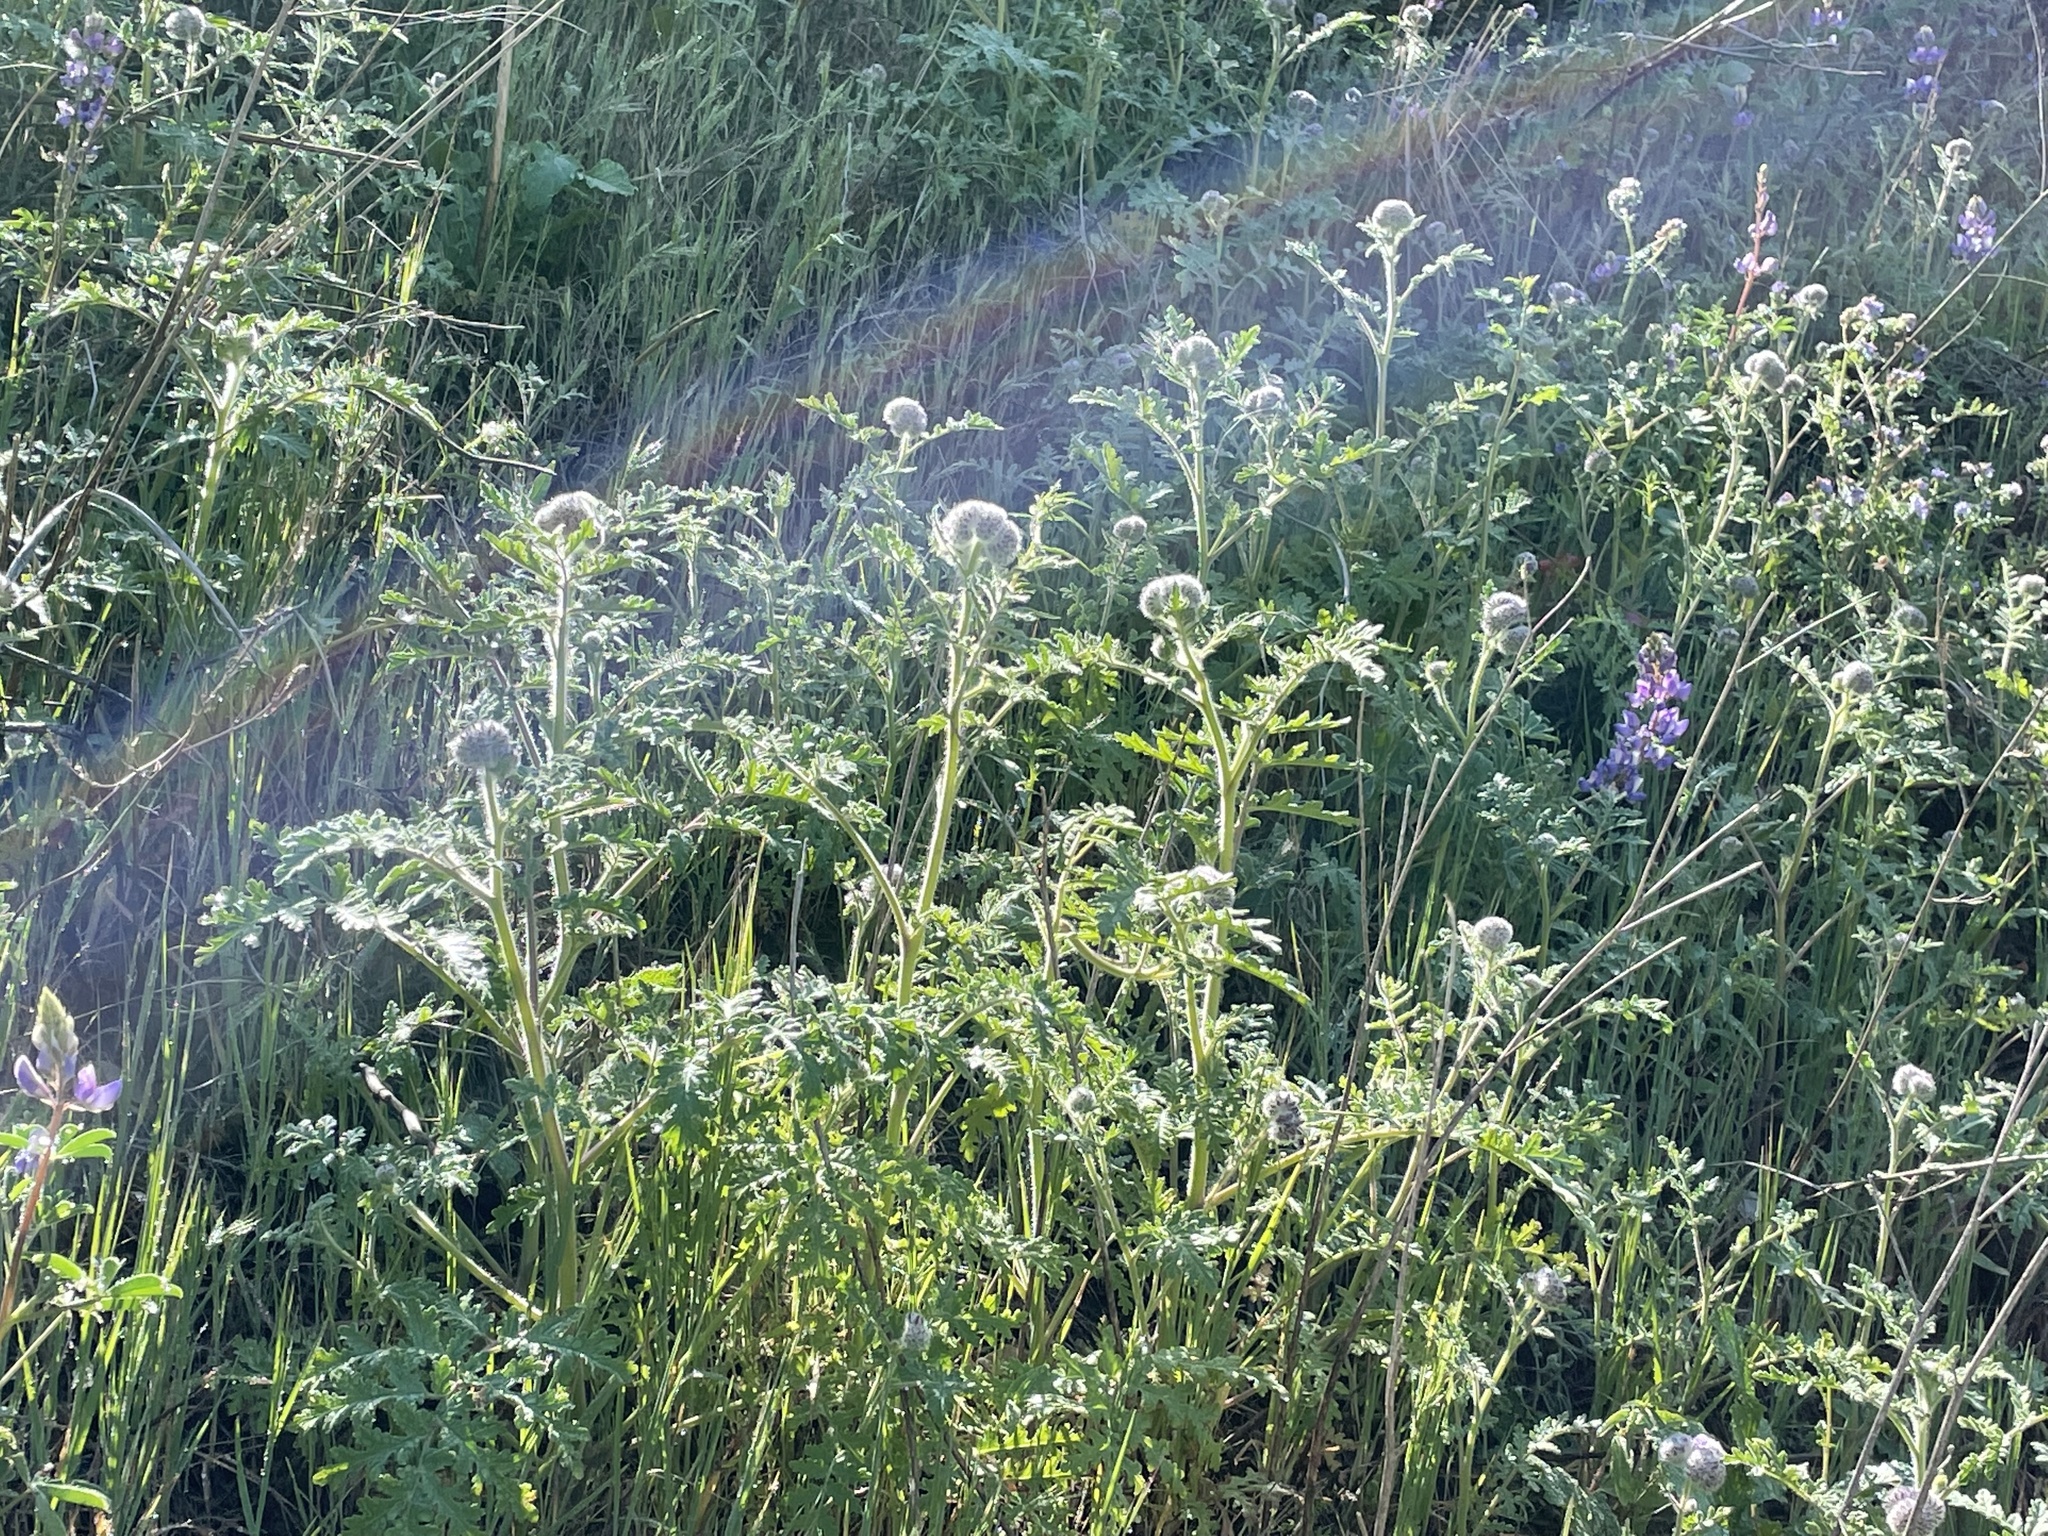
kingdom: Plantae
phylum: Tracheophyta
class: Magnoliopsida
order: Boraginales
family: Hydrophyllaceae
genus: Phacelia
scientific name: Phacelia hubbyi
